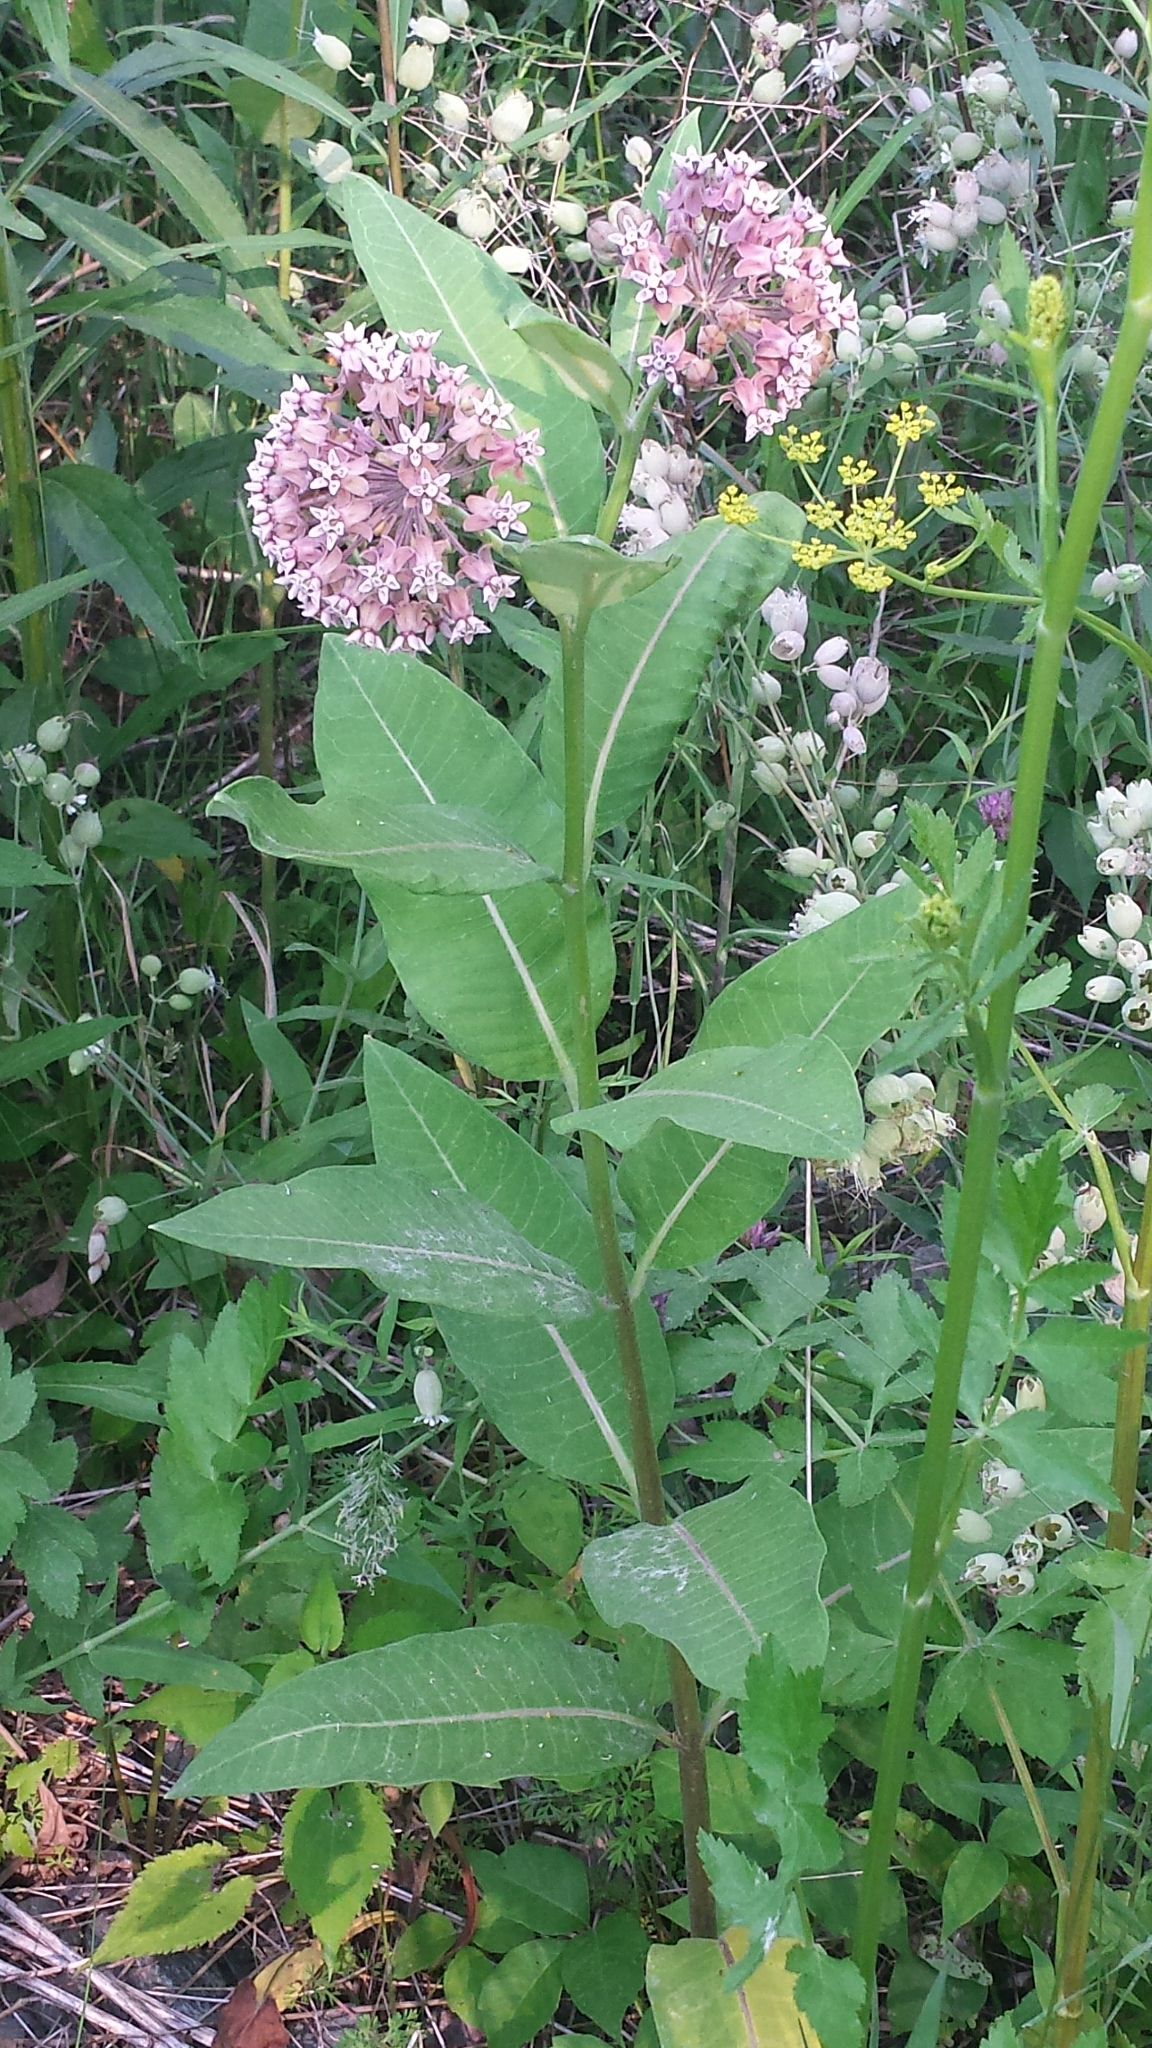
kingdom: Plantae
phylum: Tracheophyta
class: Magnoliopsida
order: Gentianales
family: Apocynaceae
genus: Asclepias
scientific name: Asclepias syriaca
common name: Common milkweed
